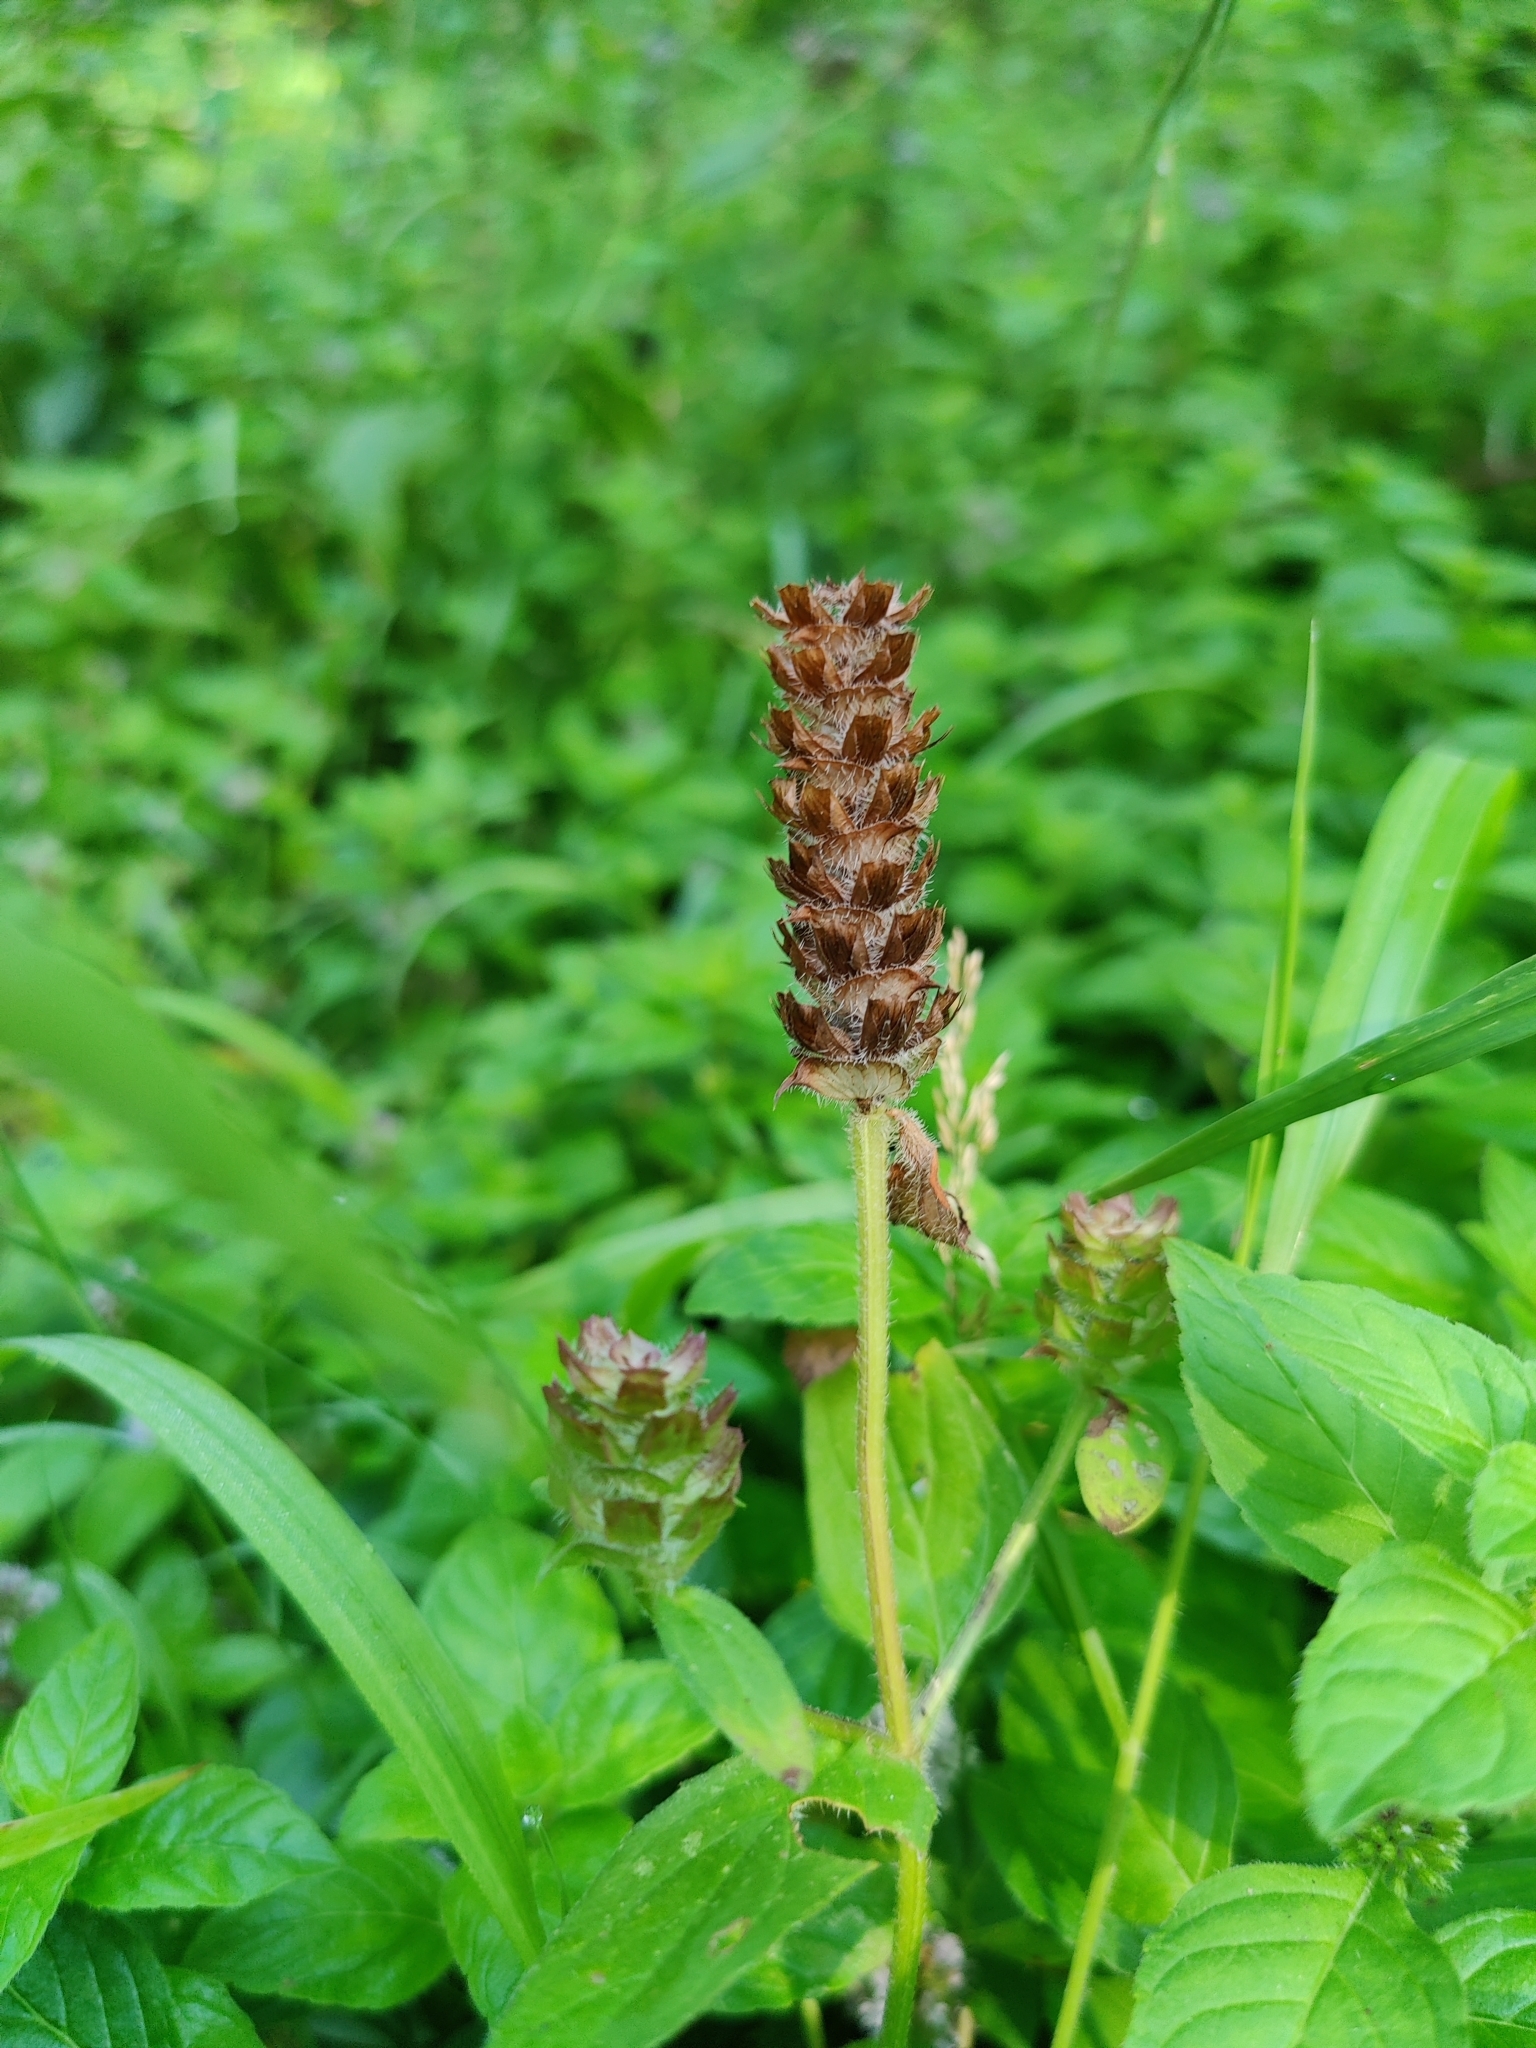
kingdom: Plantae
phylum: Tracheophyta
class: Magnoliopsida
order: Lamiales
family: Lamiaceae
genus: Prunella
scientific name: Prunella vulgaris
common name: Heal-all
